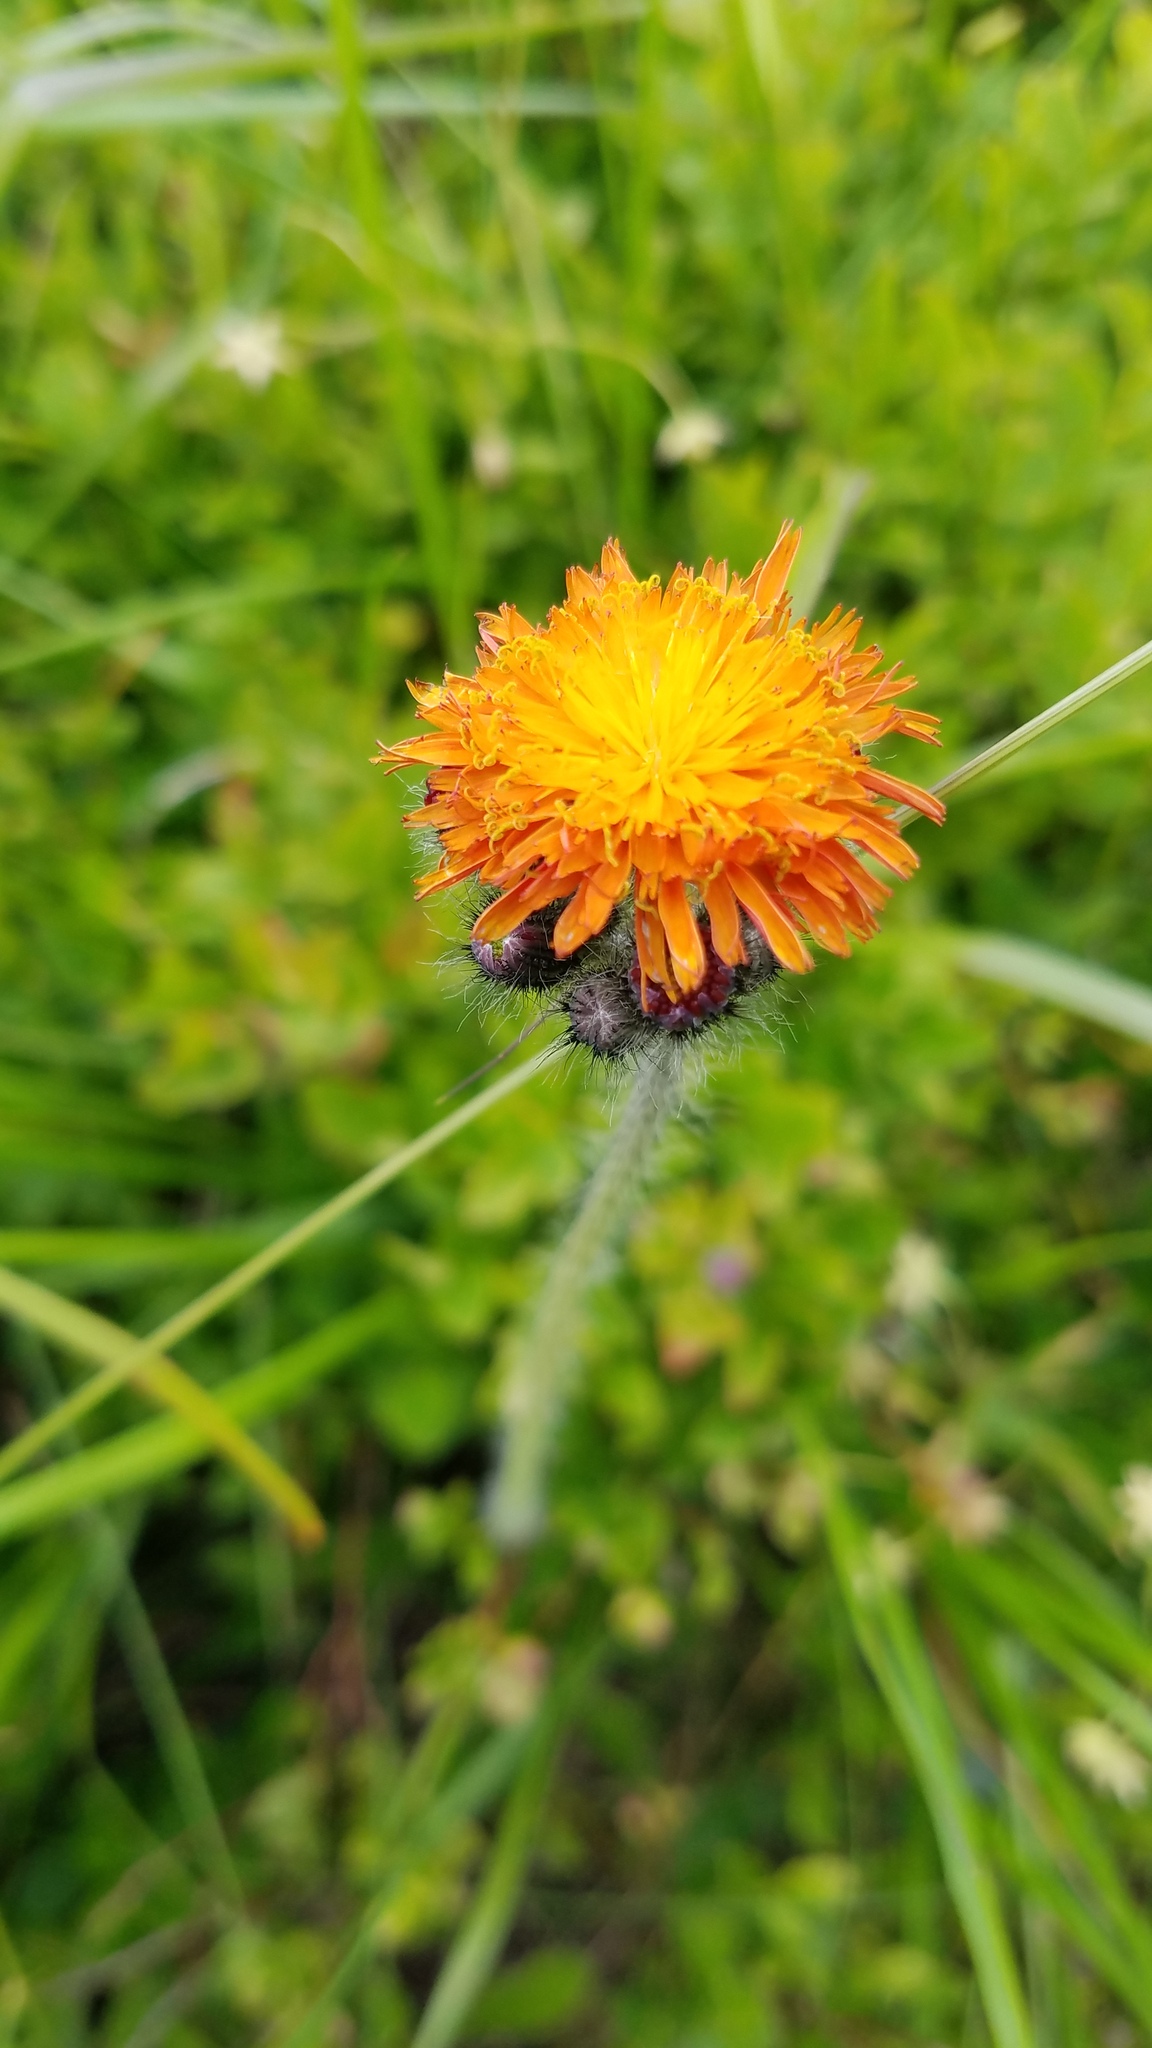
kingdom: Plantae
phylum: Tracheophyta
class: Magnoliopsida
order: Asterales
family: Asteraceae
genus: Pilosella
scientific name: Pilosella aurantiaca
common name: Fox-and-cubs
